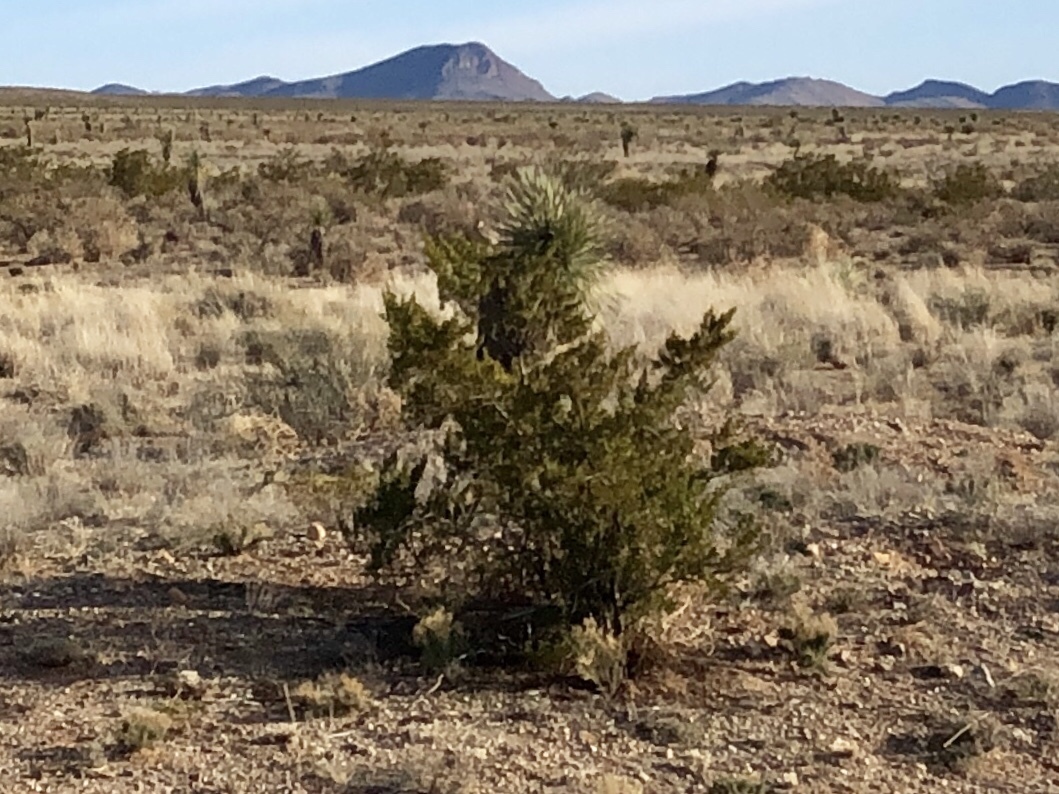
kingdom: Plantae
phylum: Tracheophyta
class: Magnoliopsida
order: Zygophyllales
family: Zygophyllaceae
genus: Larrea
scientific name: Larrea tridentata
